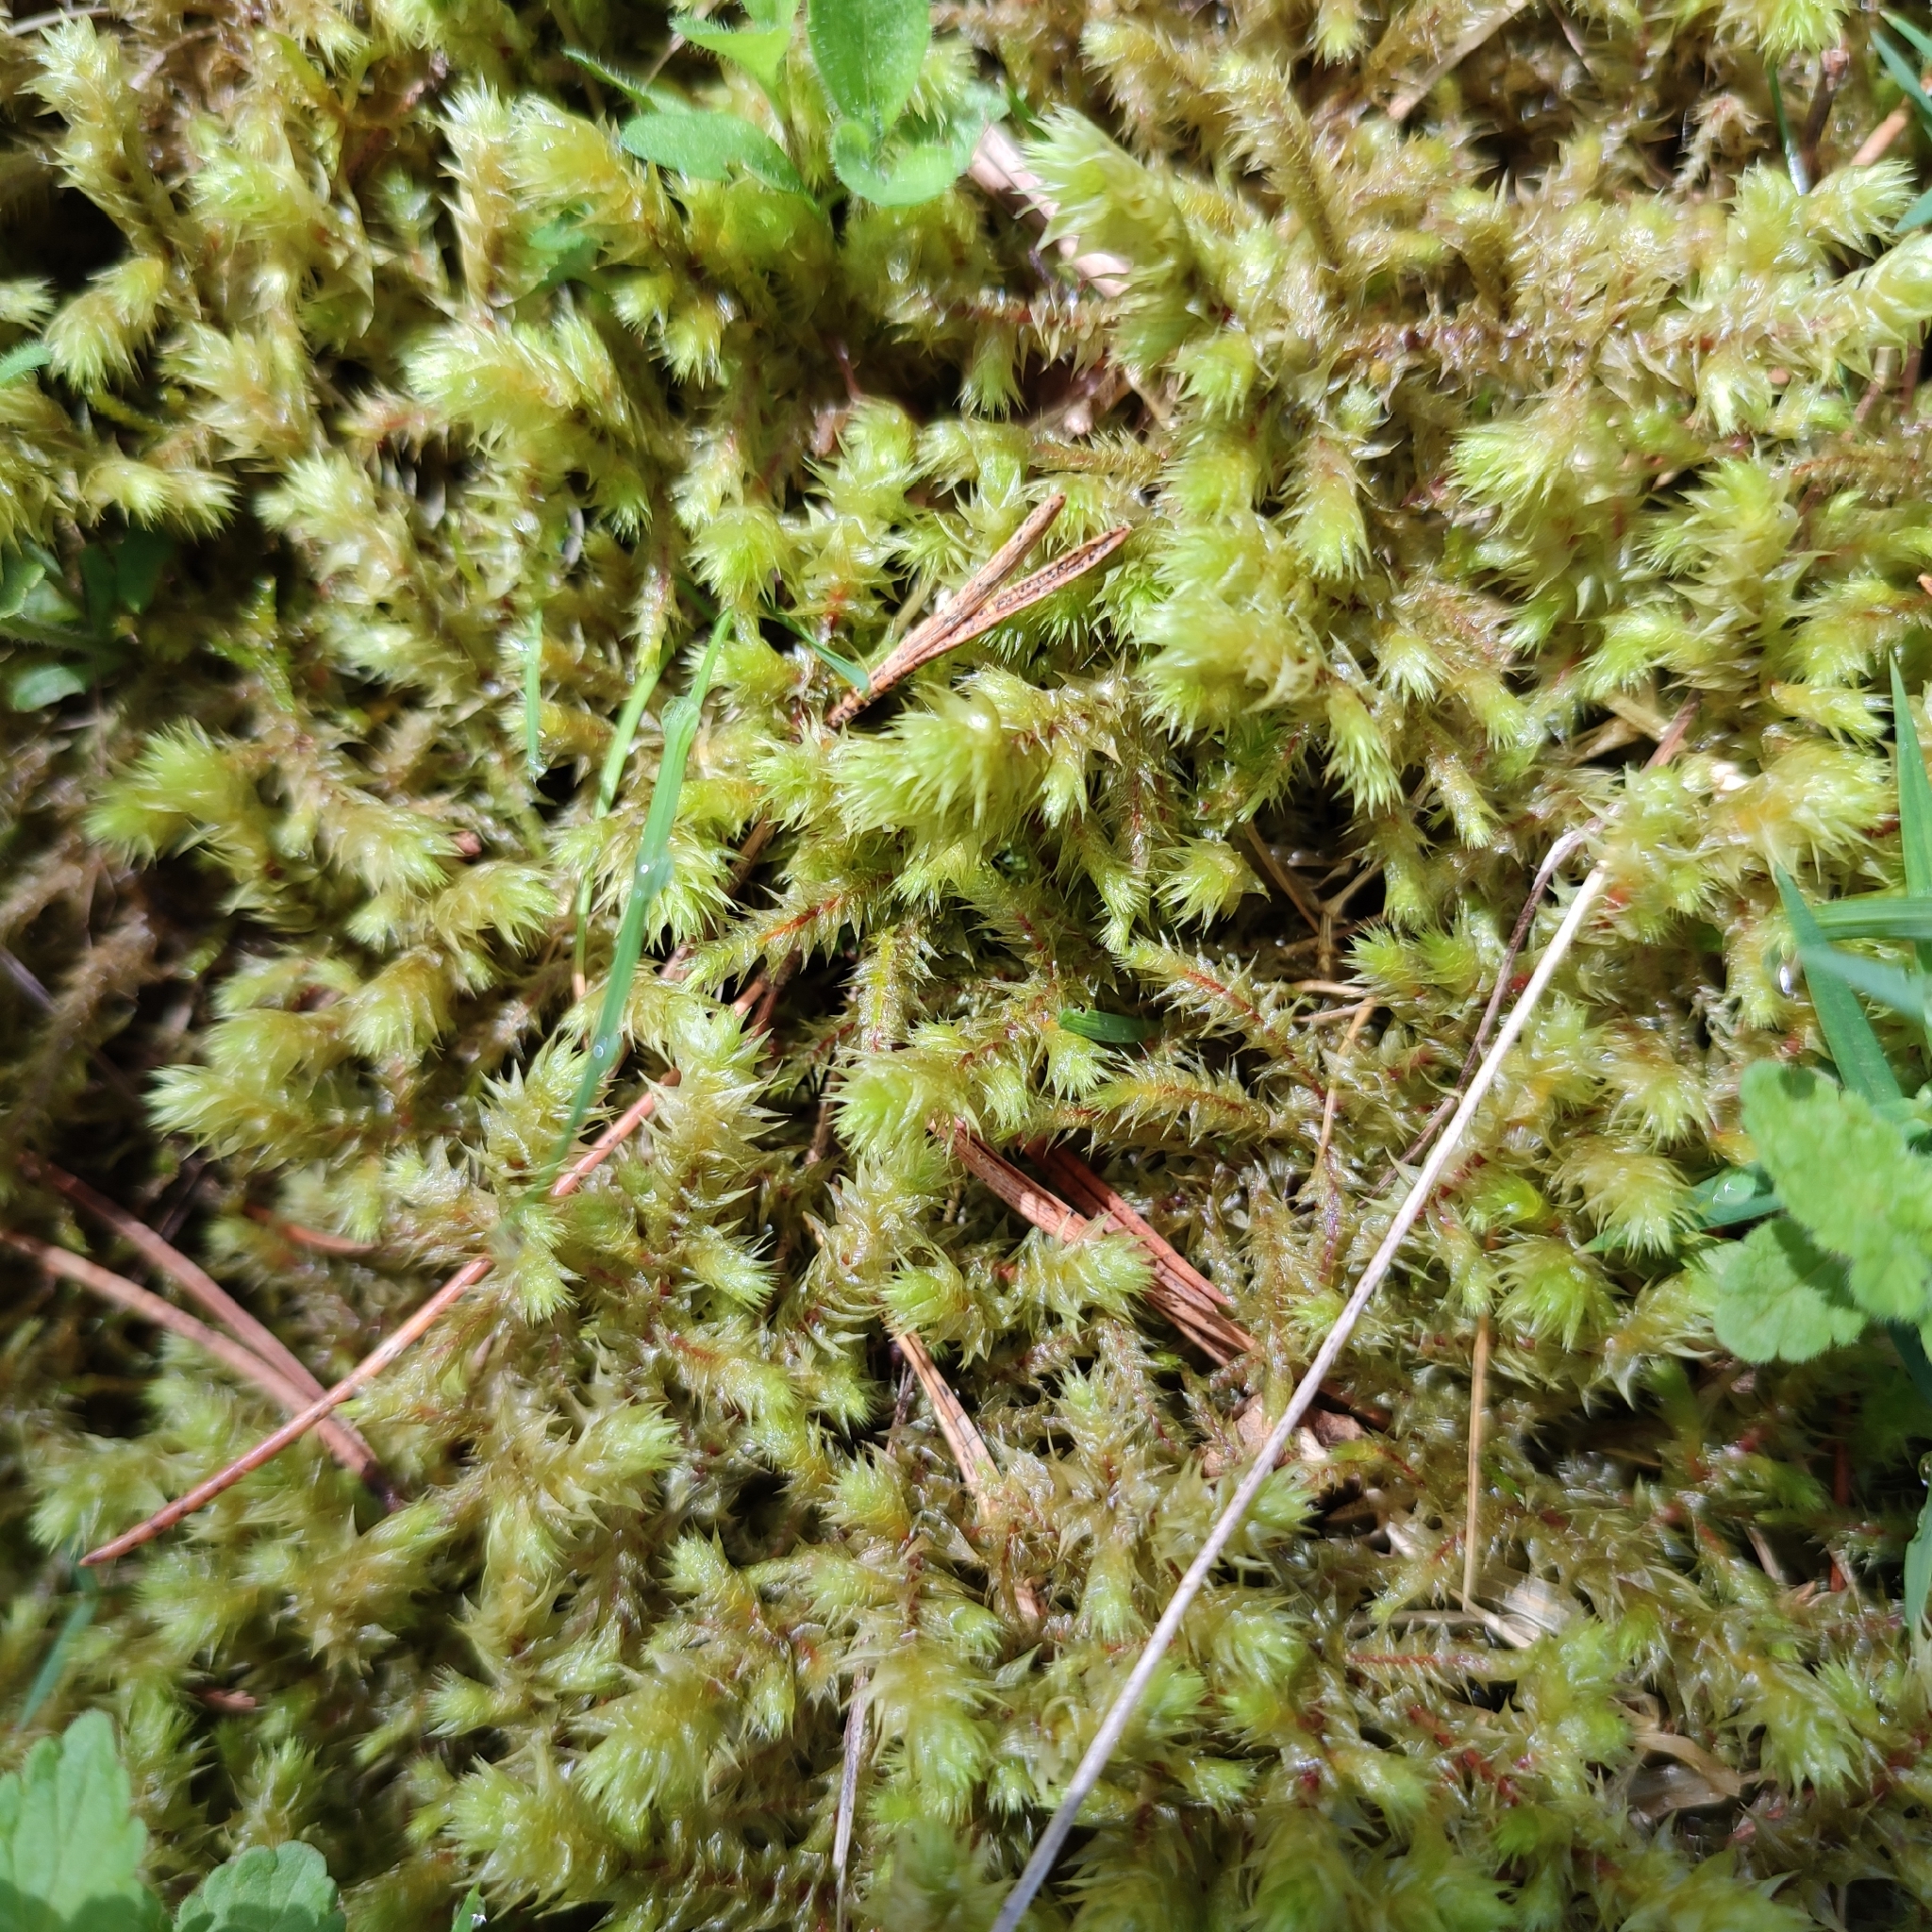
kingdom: Plantae
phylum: Bryophyta
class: Bryopsida
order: Hypnales
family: Hylocomiaceae
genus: Hylocomiadelphus
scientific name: Hylocomiadelphus triquetrus
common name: Rough goose neck moss
